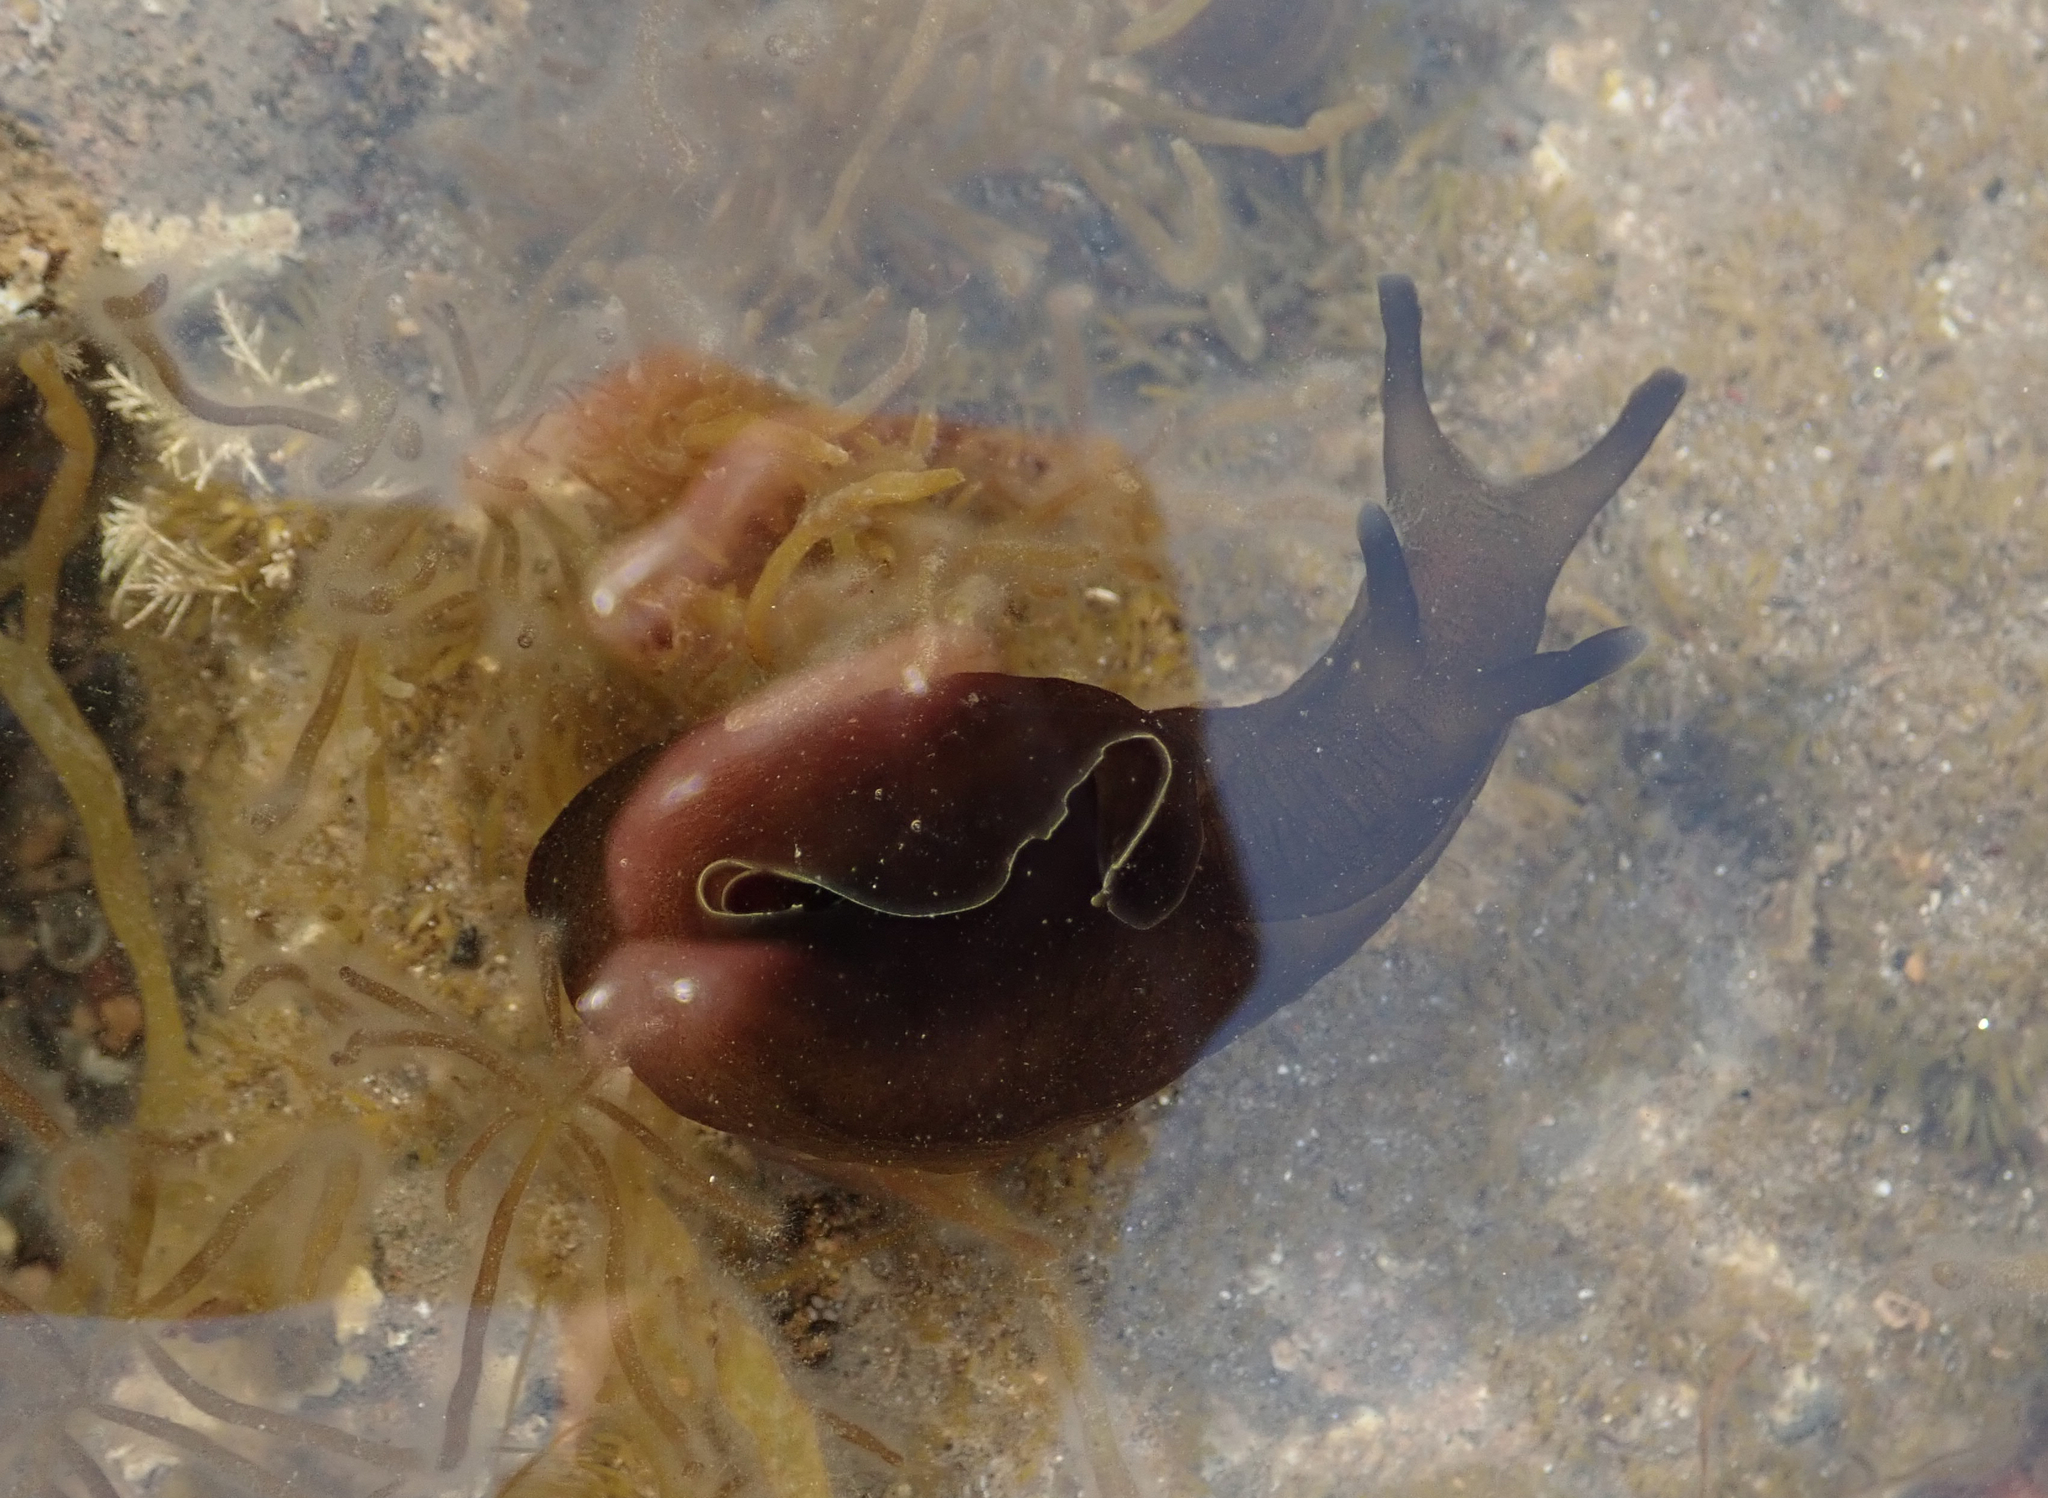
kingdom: Animalia
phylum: Mollusca
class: Gastropoda
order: Aplysiida
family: Aplysiidae
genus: Aplysia
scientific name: Aplysia punctata
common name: Common sea hare
